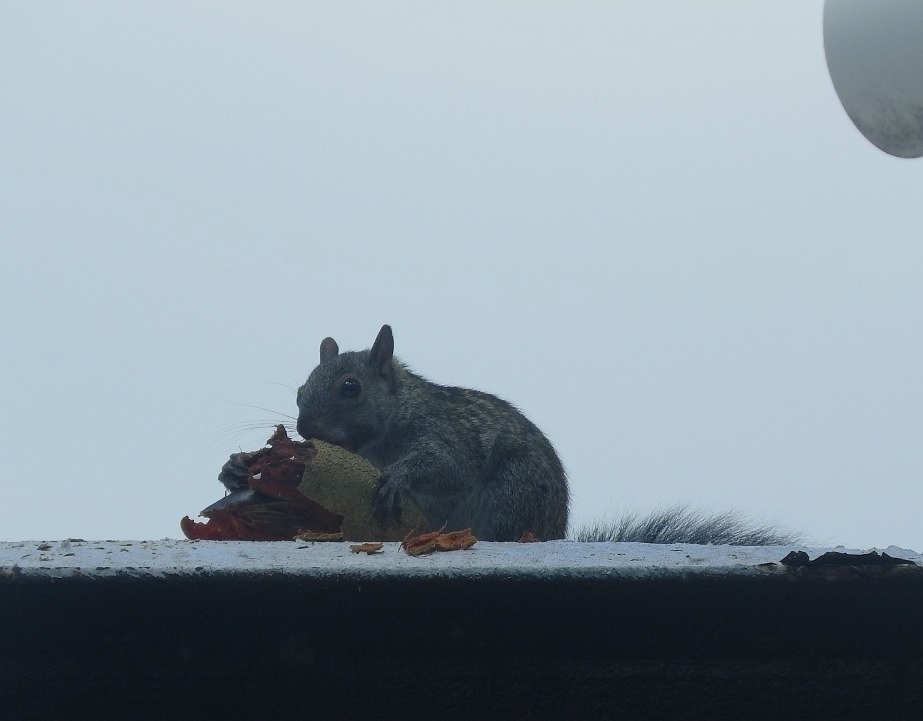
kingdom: Animalia
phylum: Chordata
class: Mammalia
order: Rodentia
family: Sciuridae
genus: Sciurus
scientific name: Sciurus yucatanensis
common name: Yucatan squirrel
